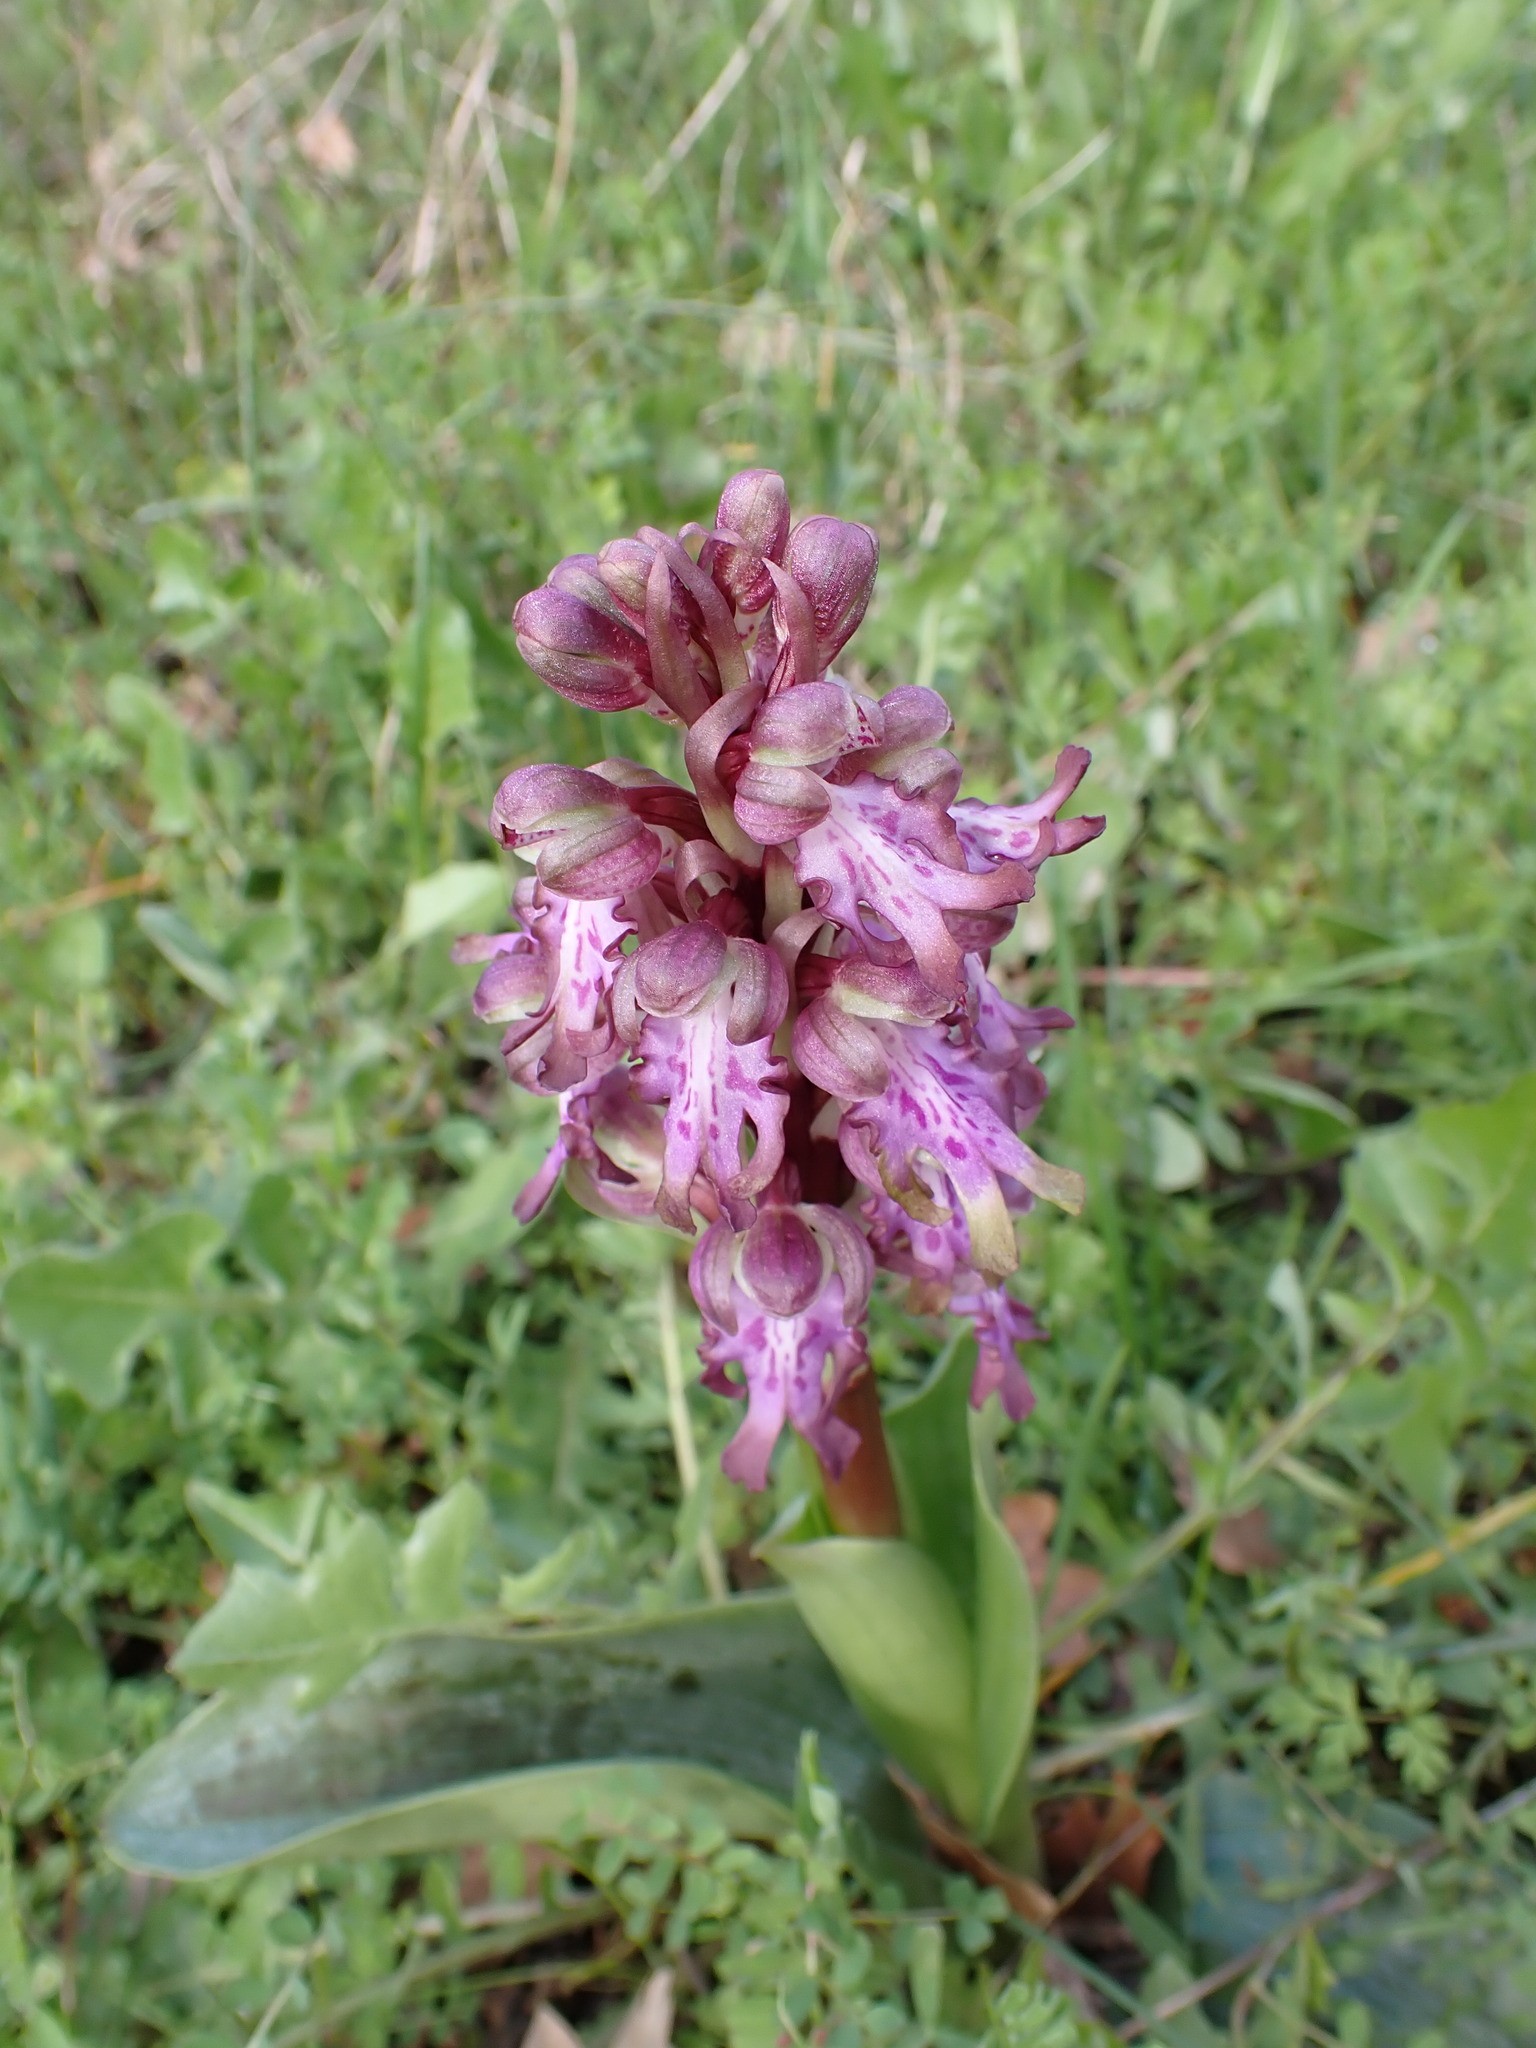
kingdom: Plantae
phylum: Tracheophyta
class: Liliopsida
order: Asparagales
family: Orchidaceae
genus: Himantoglossum
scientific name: Himantoglossum robertianum
